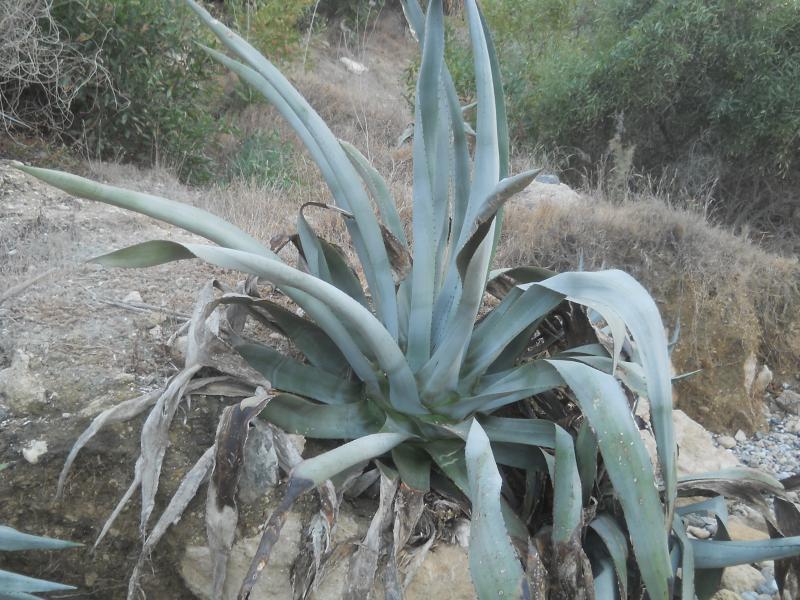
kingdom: Plantae
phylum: Tracheophyta
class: Liliopsida
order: Asparagales
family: Asparagaceae
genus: Agave
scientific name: Agave americana
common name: Centuryplant
